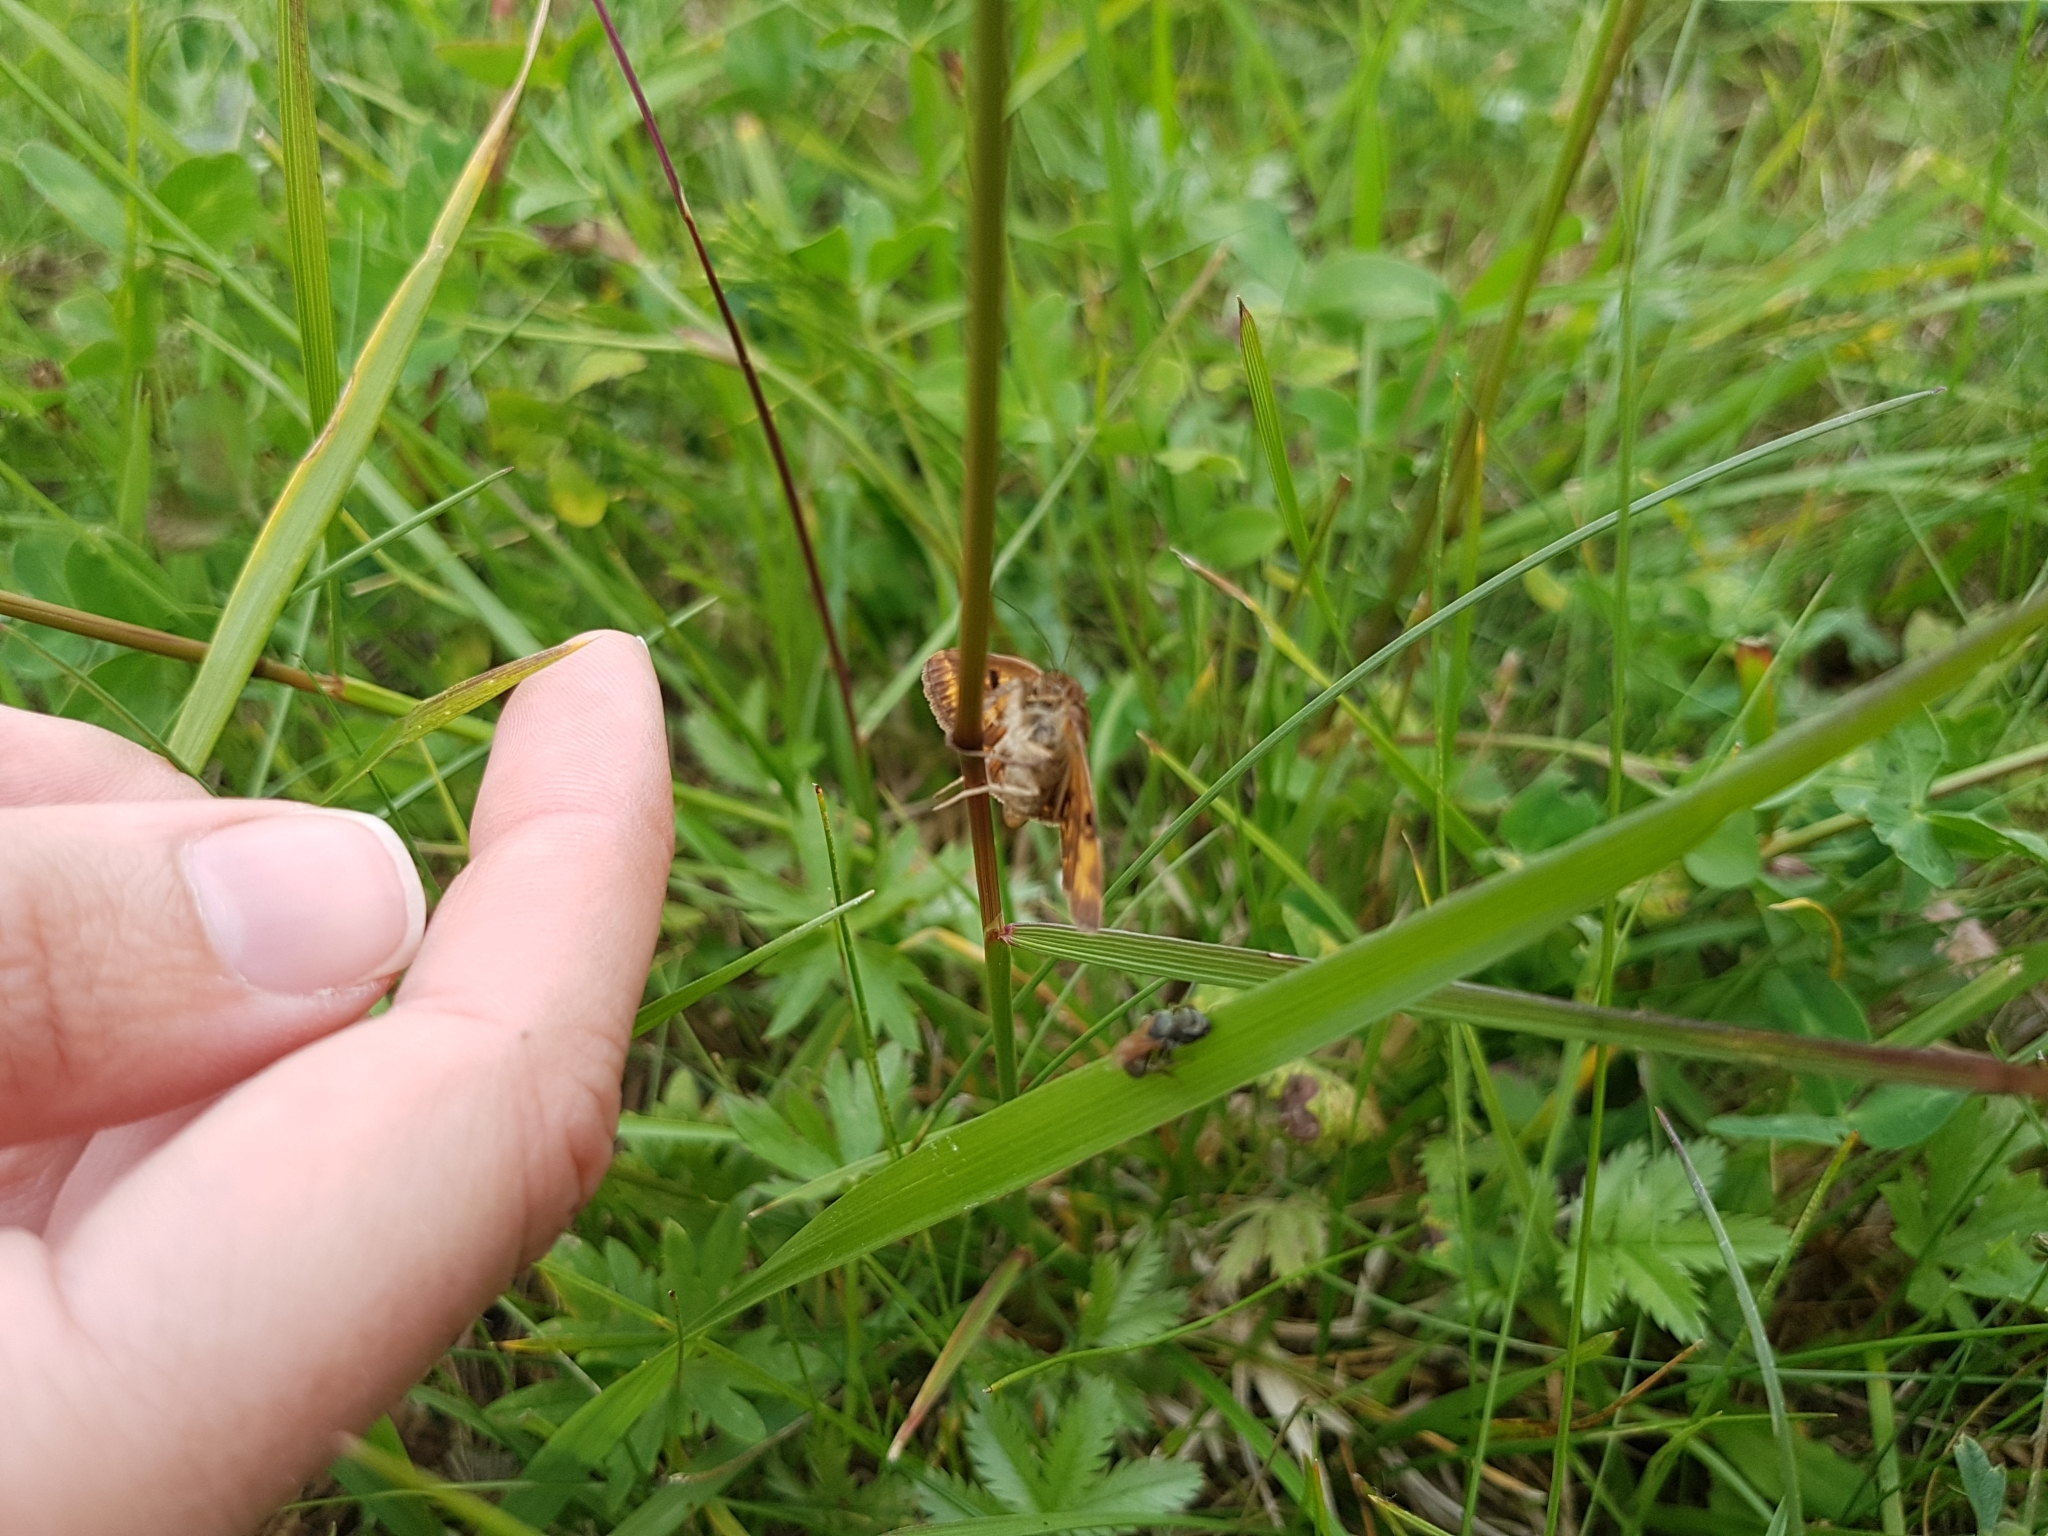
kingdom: Animalia
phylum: Arthropoda
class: Insecta
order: Lepidoptera
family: Erebidae
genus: Euclidia
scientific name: Euclidia glyphica
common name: Burnet companion
